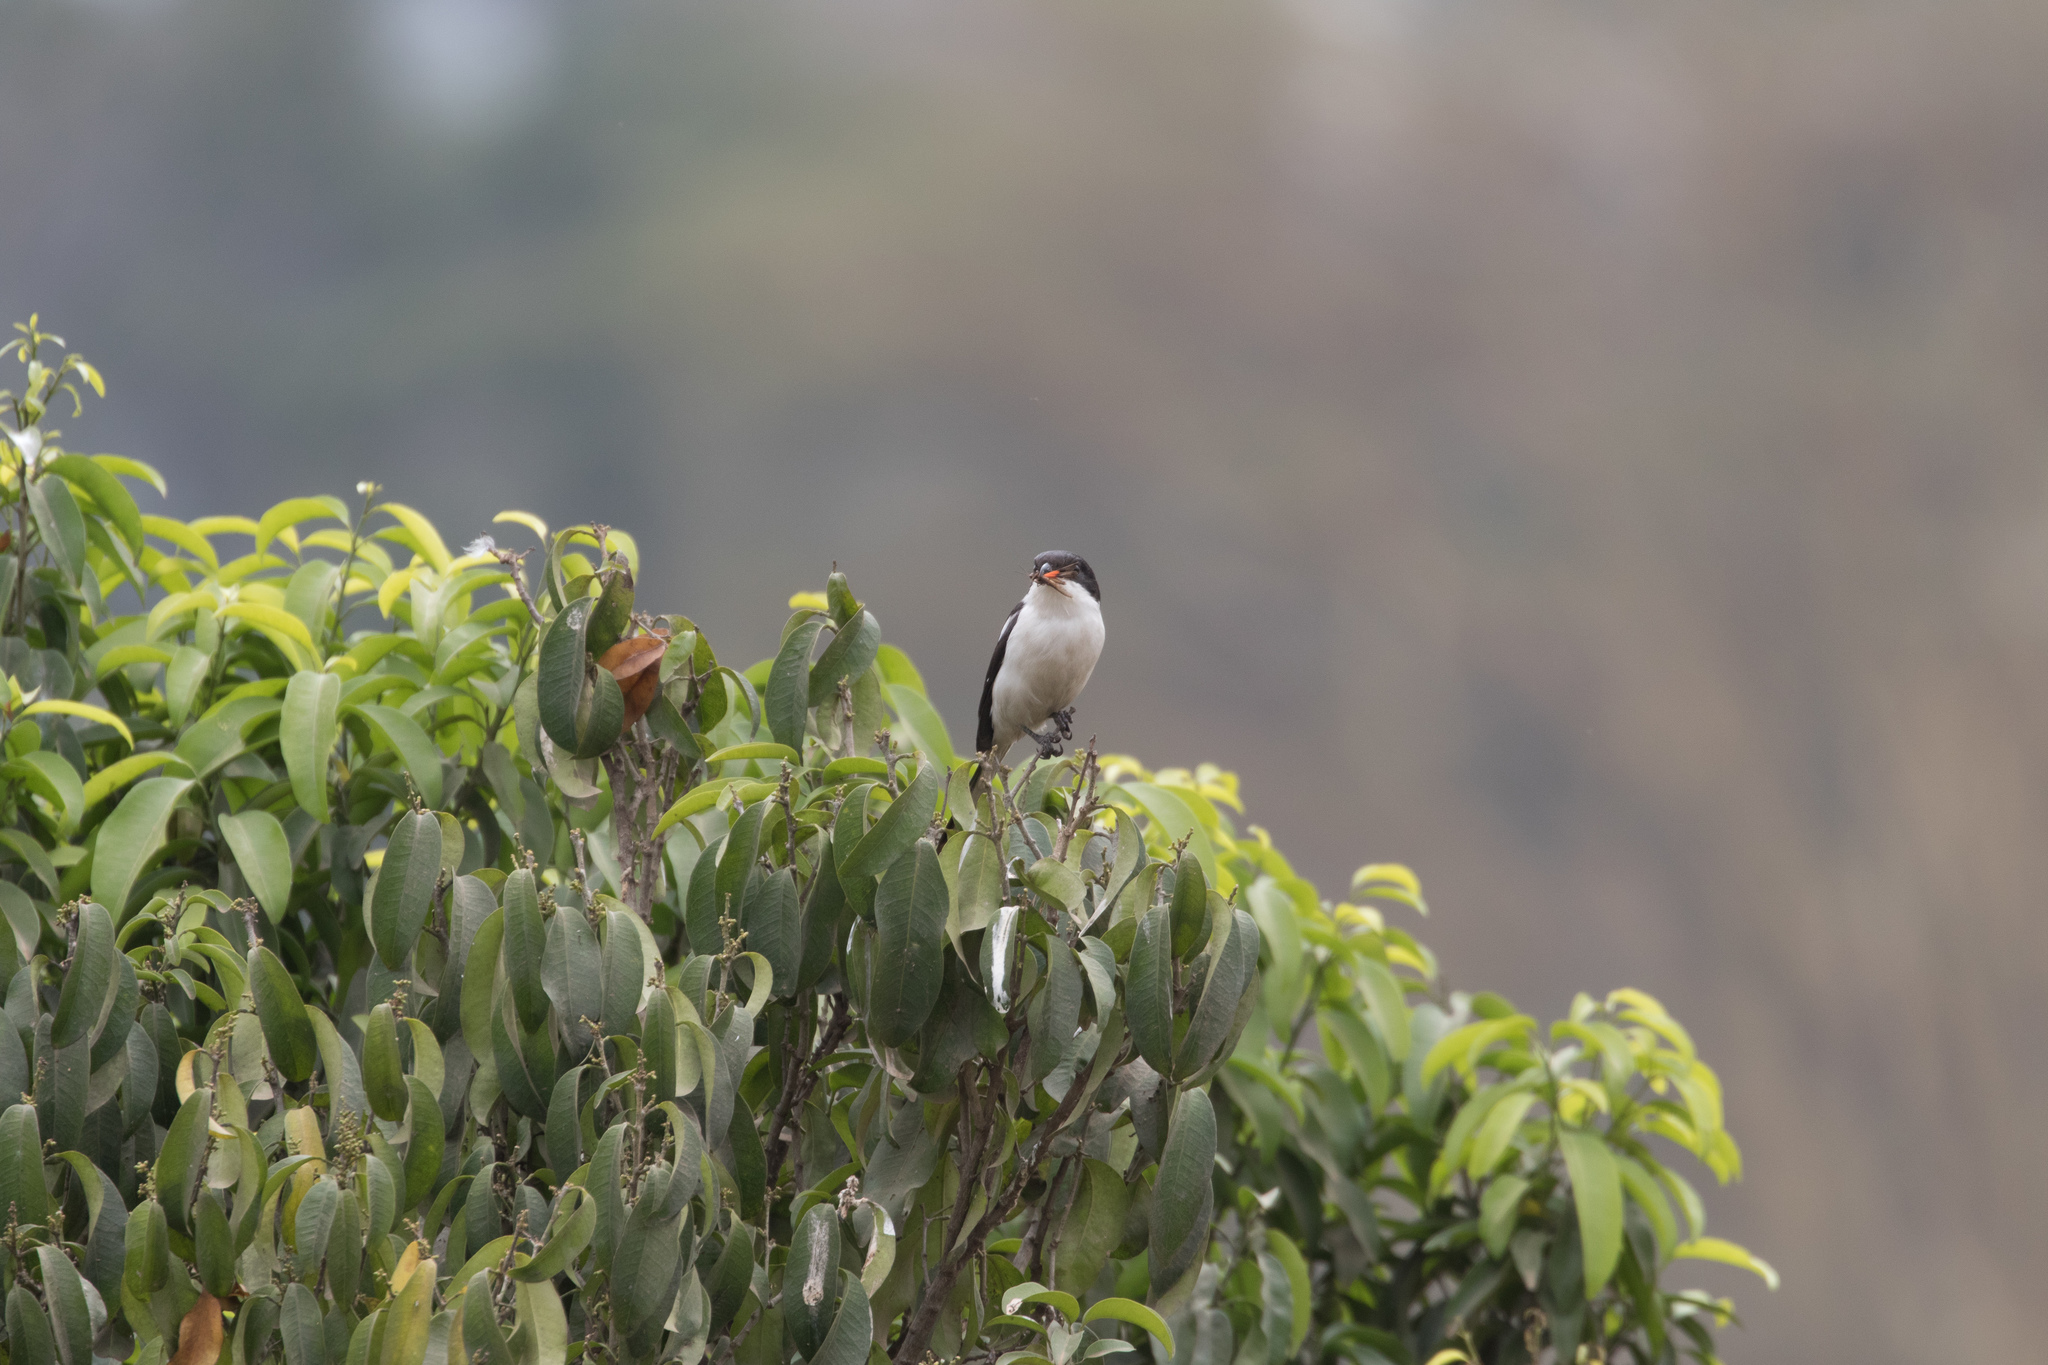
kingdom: Animalia
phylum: Chordata
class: Aves
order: Passeriformes
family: Laniidae
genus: Lanius
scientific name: Lanius humeralis
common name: Northern fiscal
